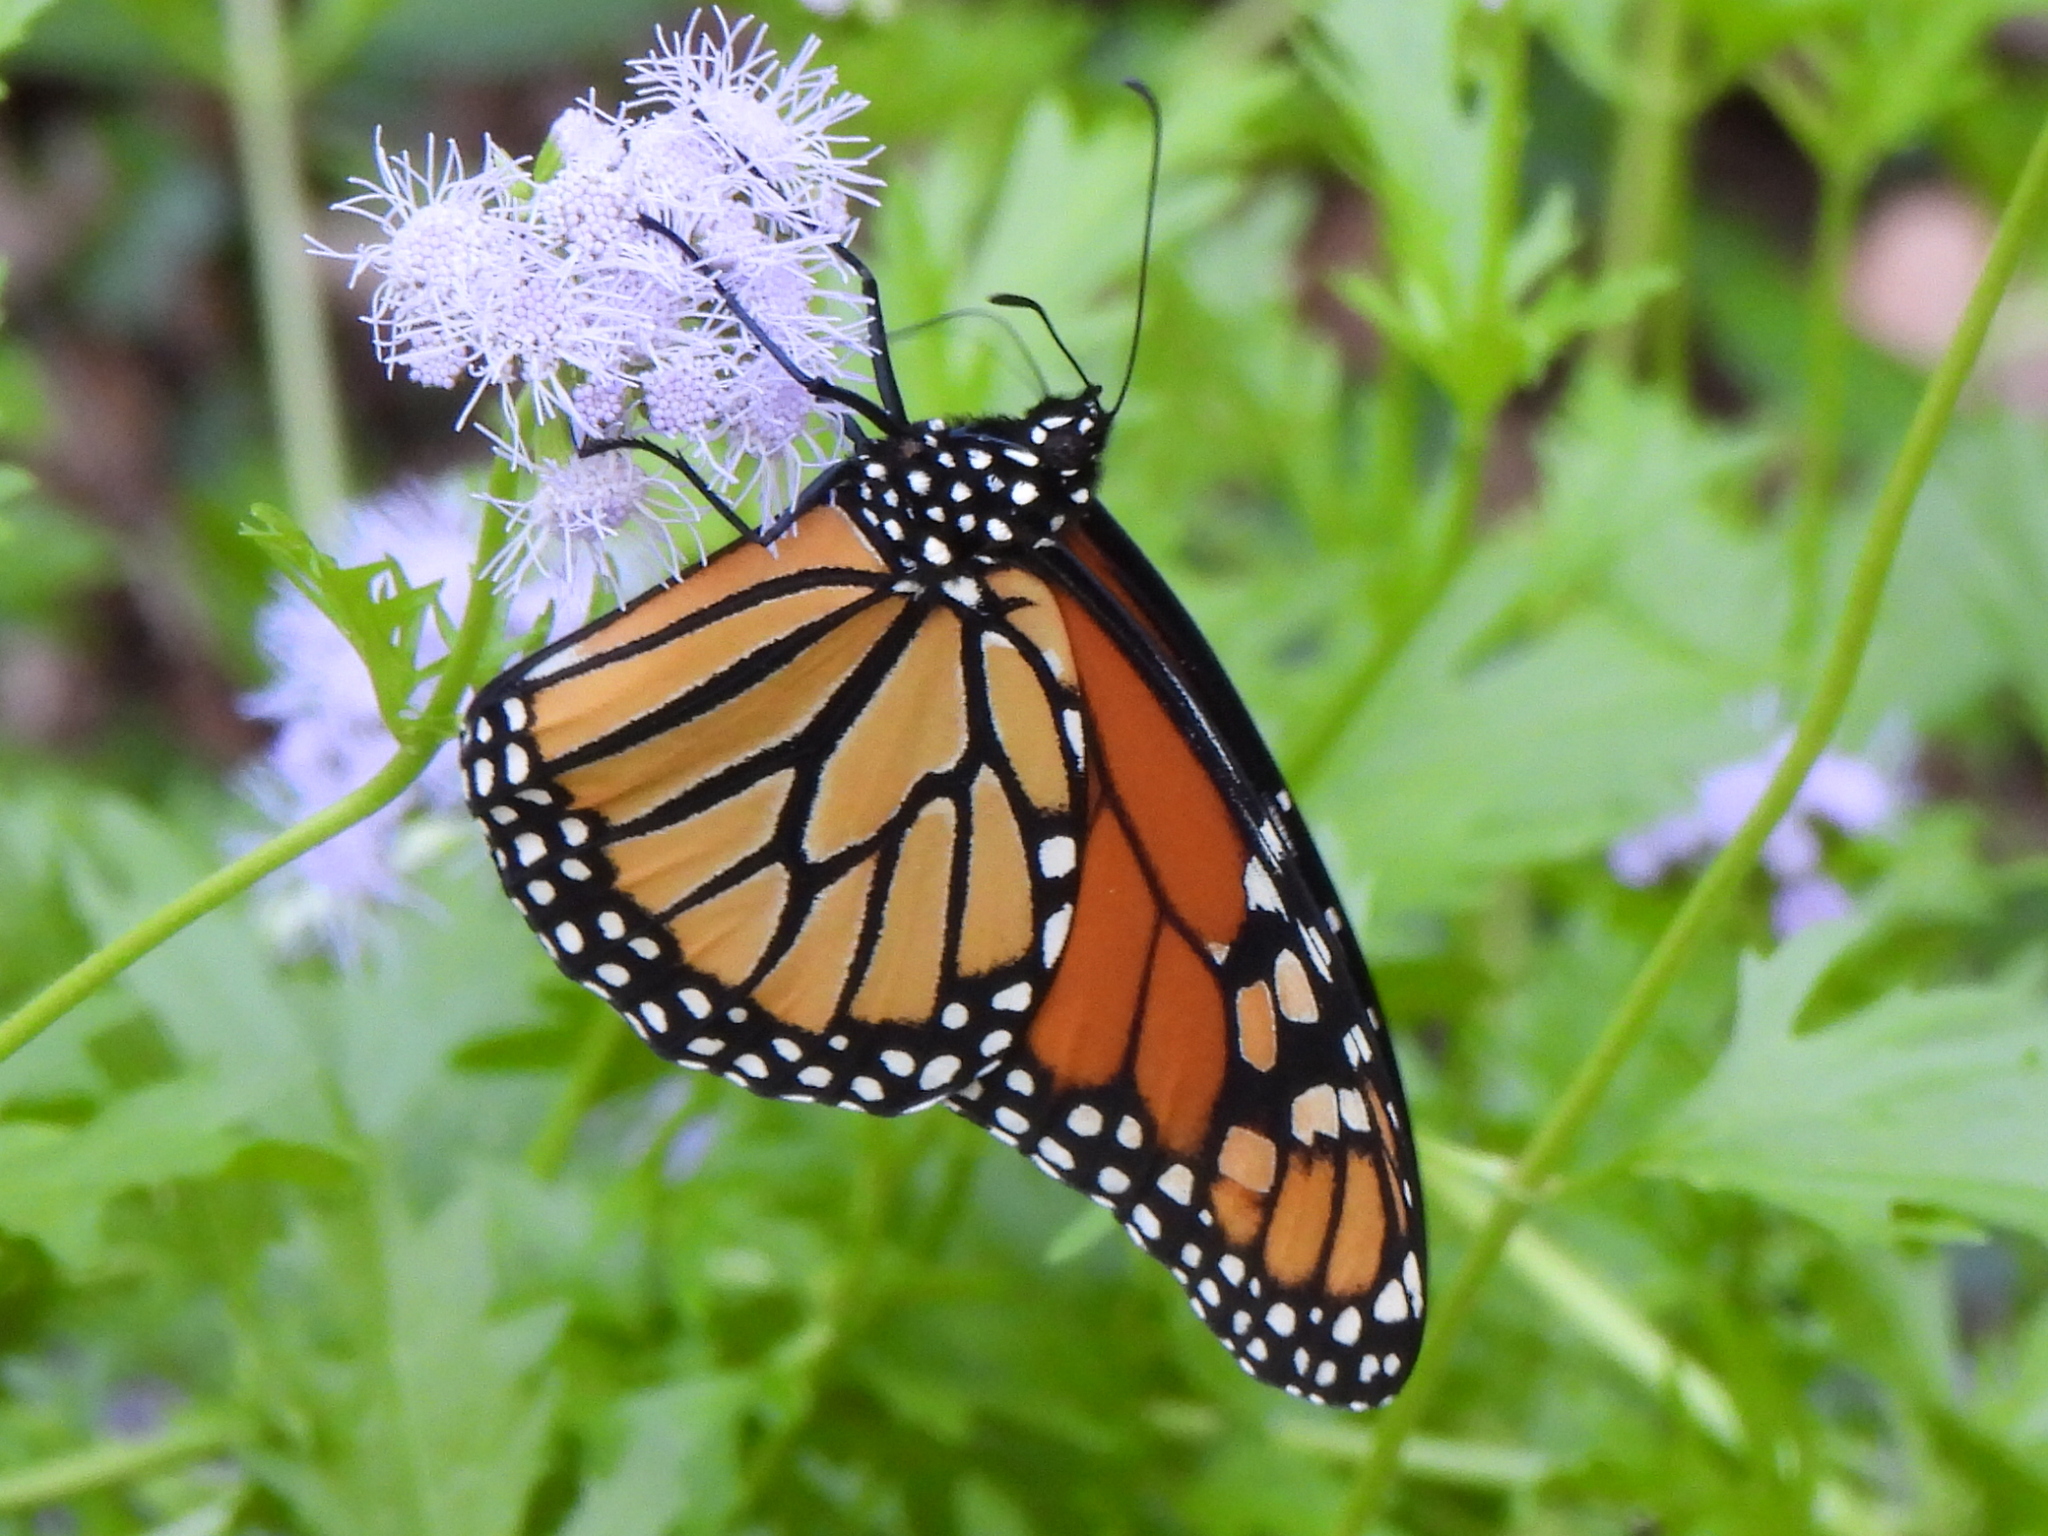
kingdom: Animalia
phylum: Arthropoda
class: Insecta
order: Lepidoptera
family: Nymphalidae
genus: Danaus
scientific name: Danaus plexippus
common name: Monarch
